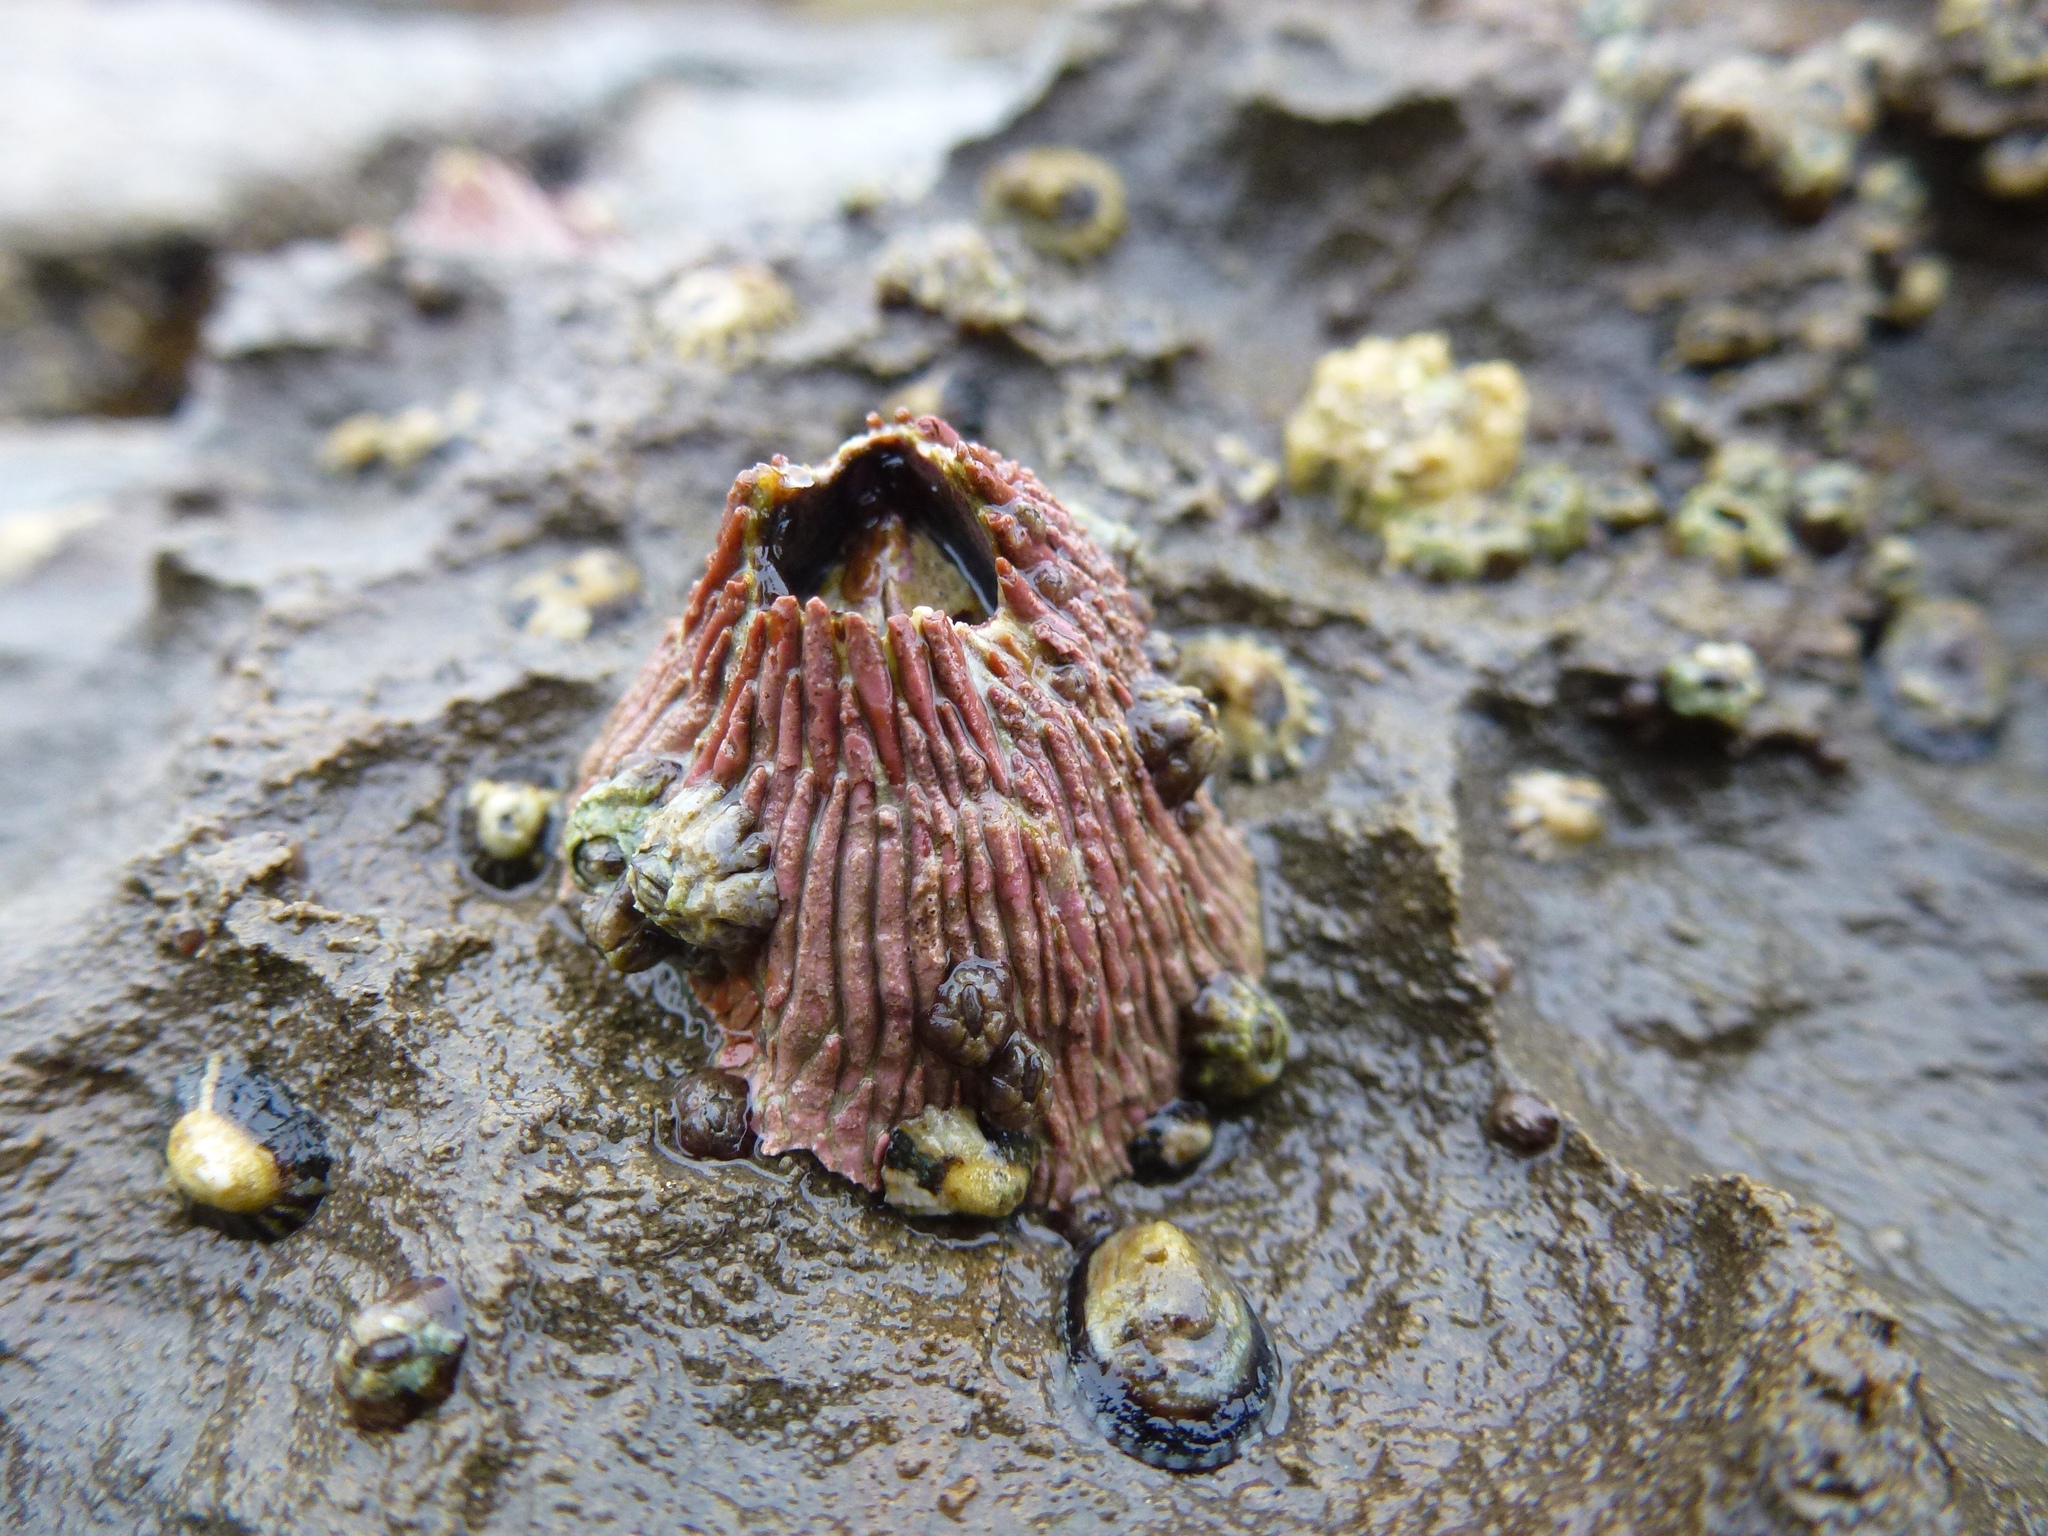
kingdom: Animalia
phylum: Arthropoda
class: Maxillopoda
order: Sessilia
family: Tetraclitidae
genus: Tetraclita
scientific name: Tetraclita rubescens
